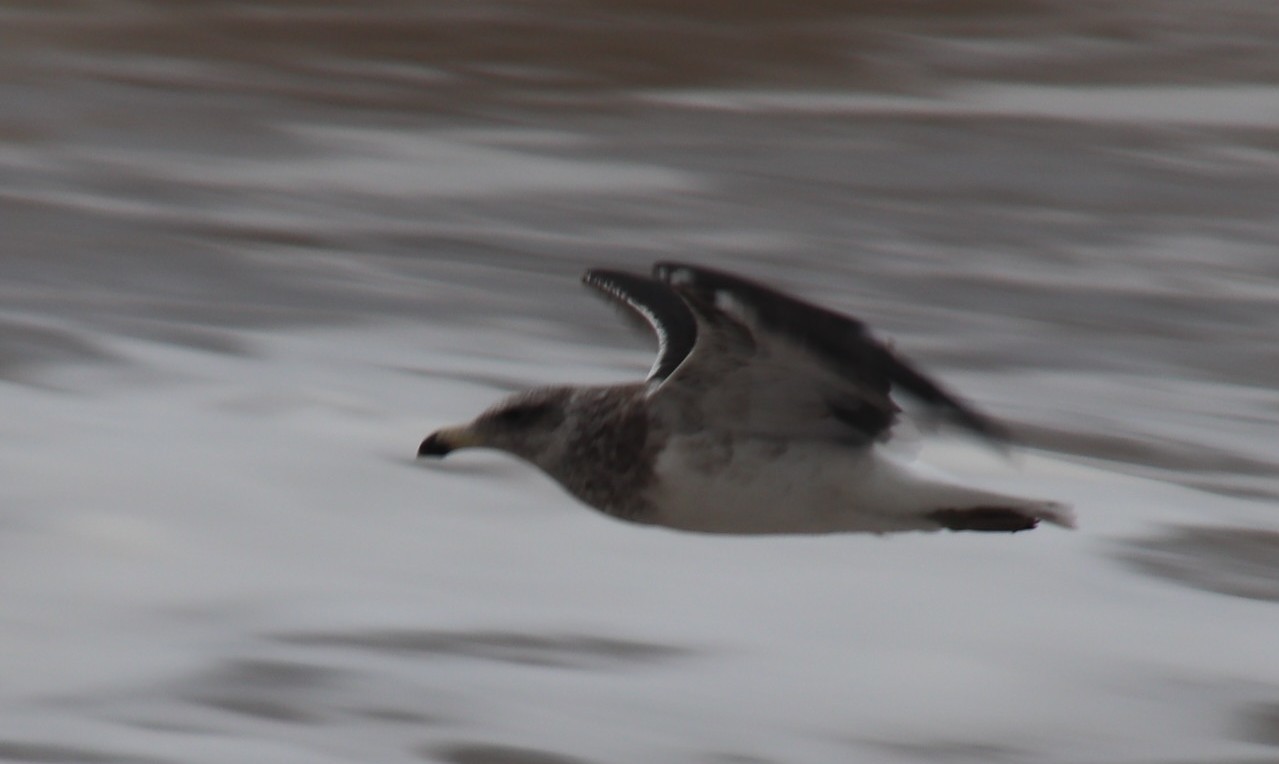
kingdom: Animalia
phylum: Chordata
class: Aves
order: Charadriiformes
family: Laridae
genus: Larus
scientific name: Larus dominicanus
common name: Kelp gull
